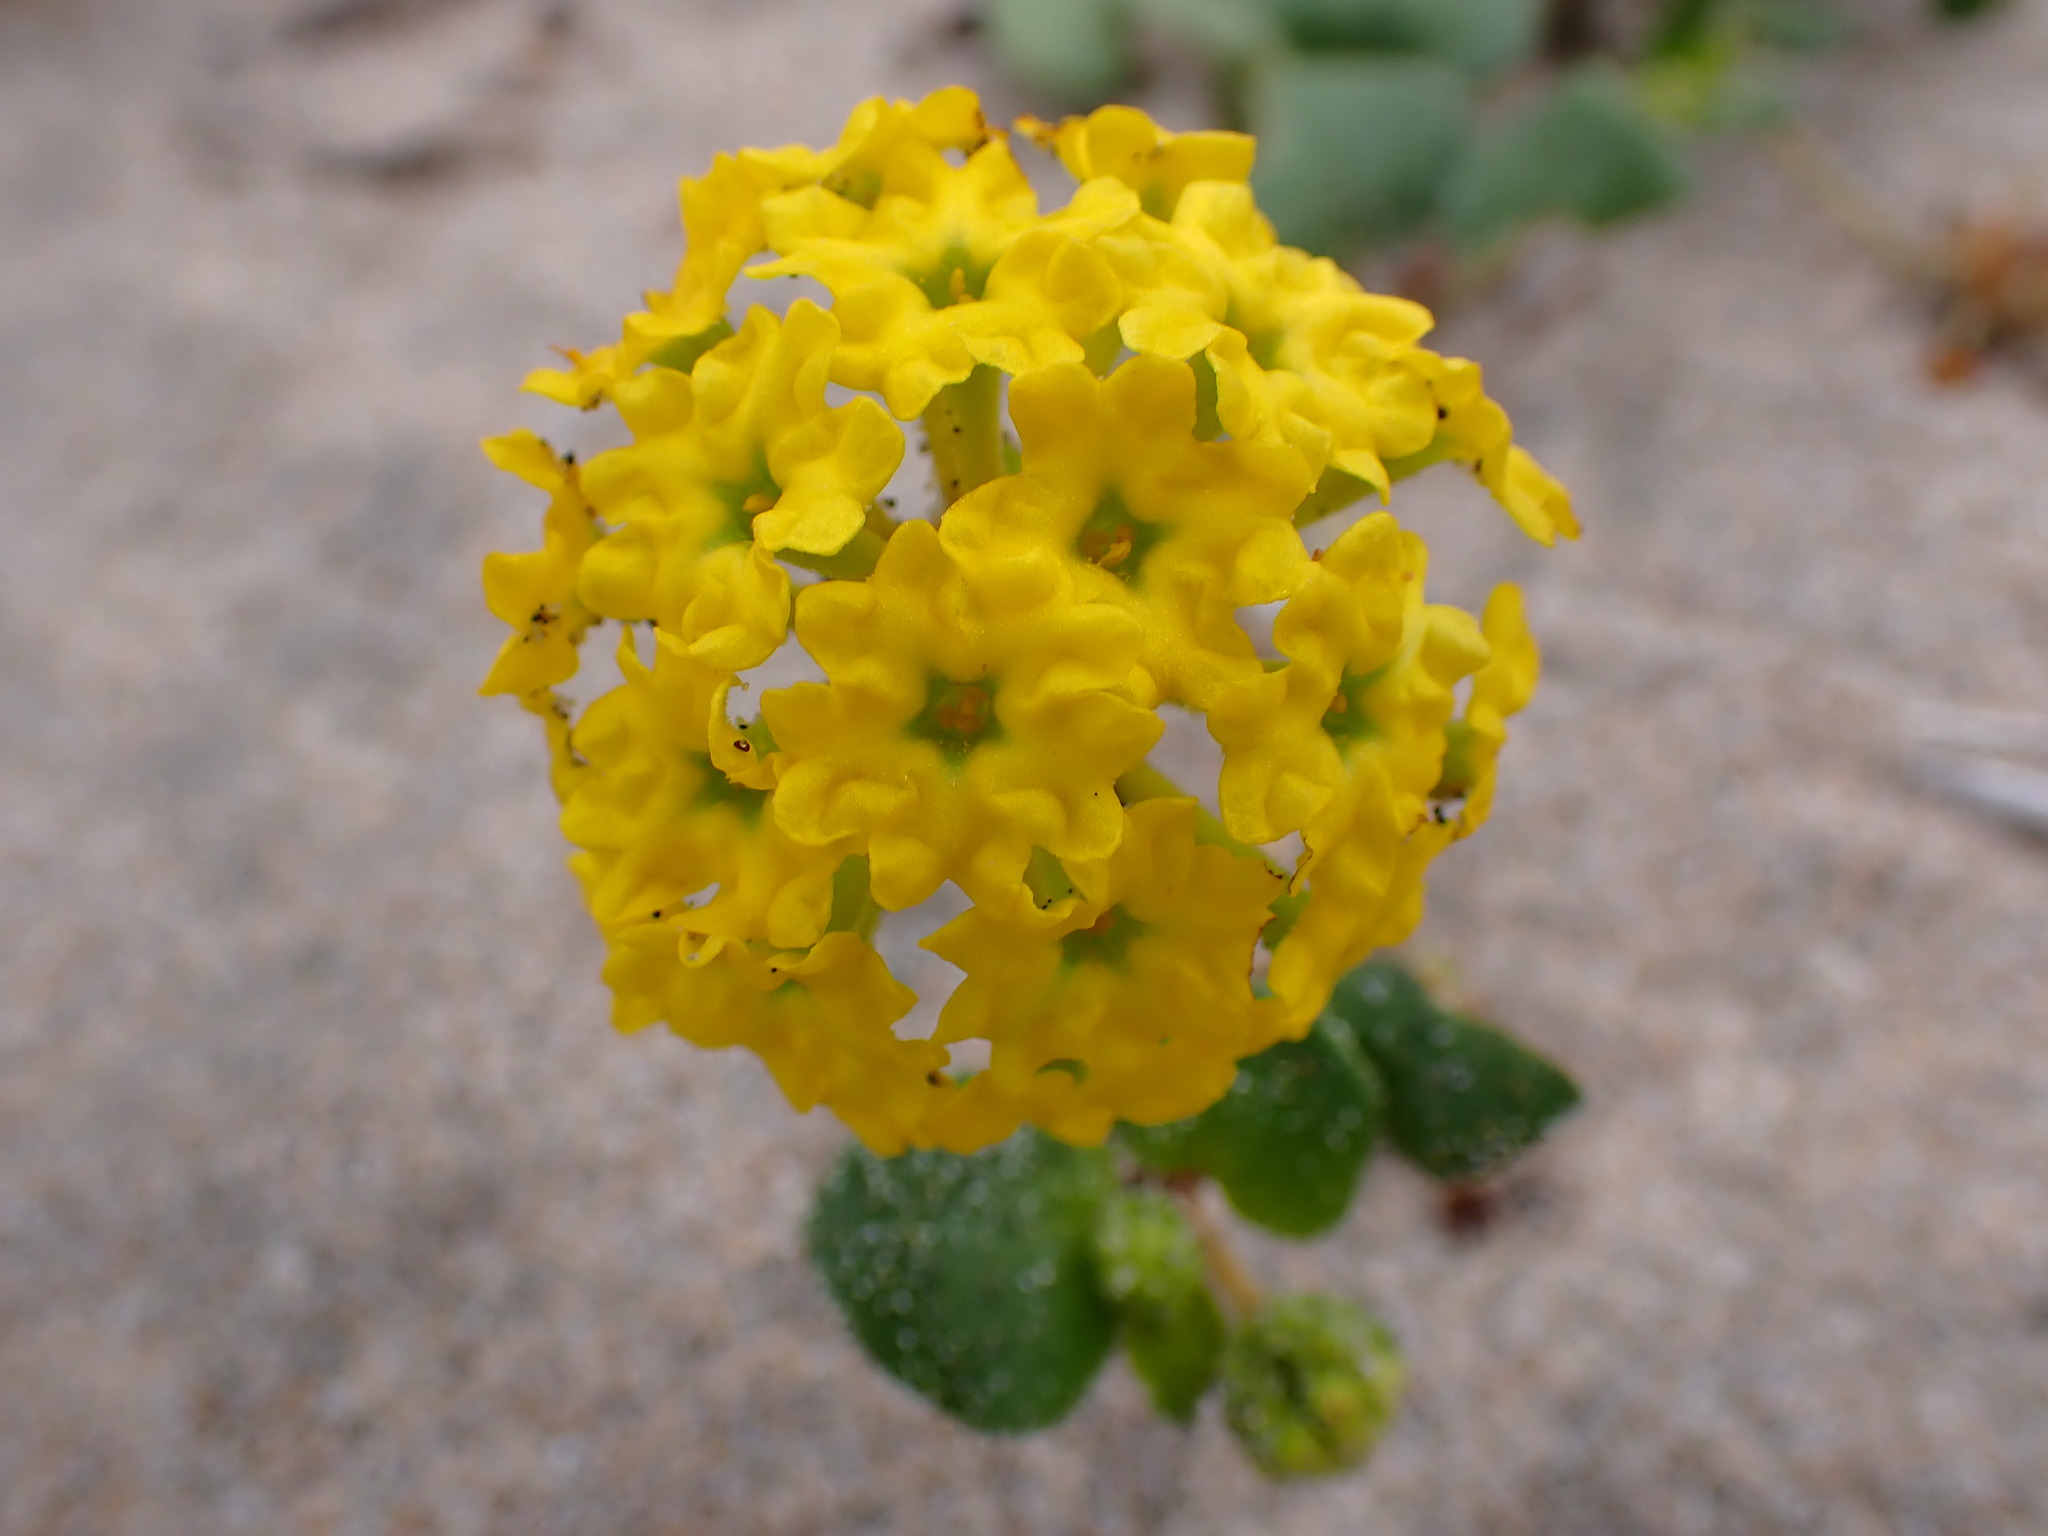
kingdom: Plantae
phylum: Tracheophyta
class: Magnoliopsida
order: Caryophyllales
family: Nyctaginaceae
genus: Abronia
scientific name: Abronia latifolia
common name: Yellow sand-verbena
